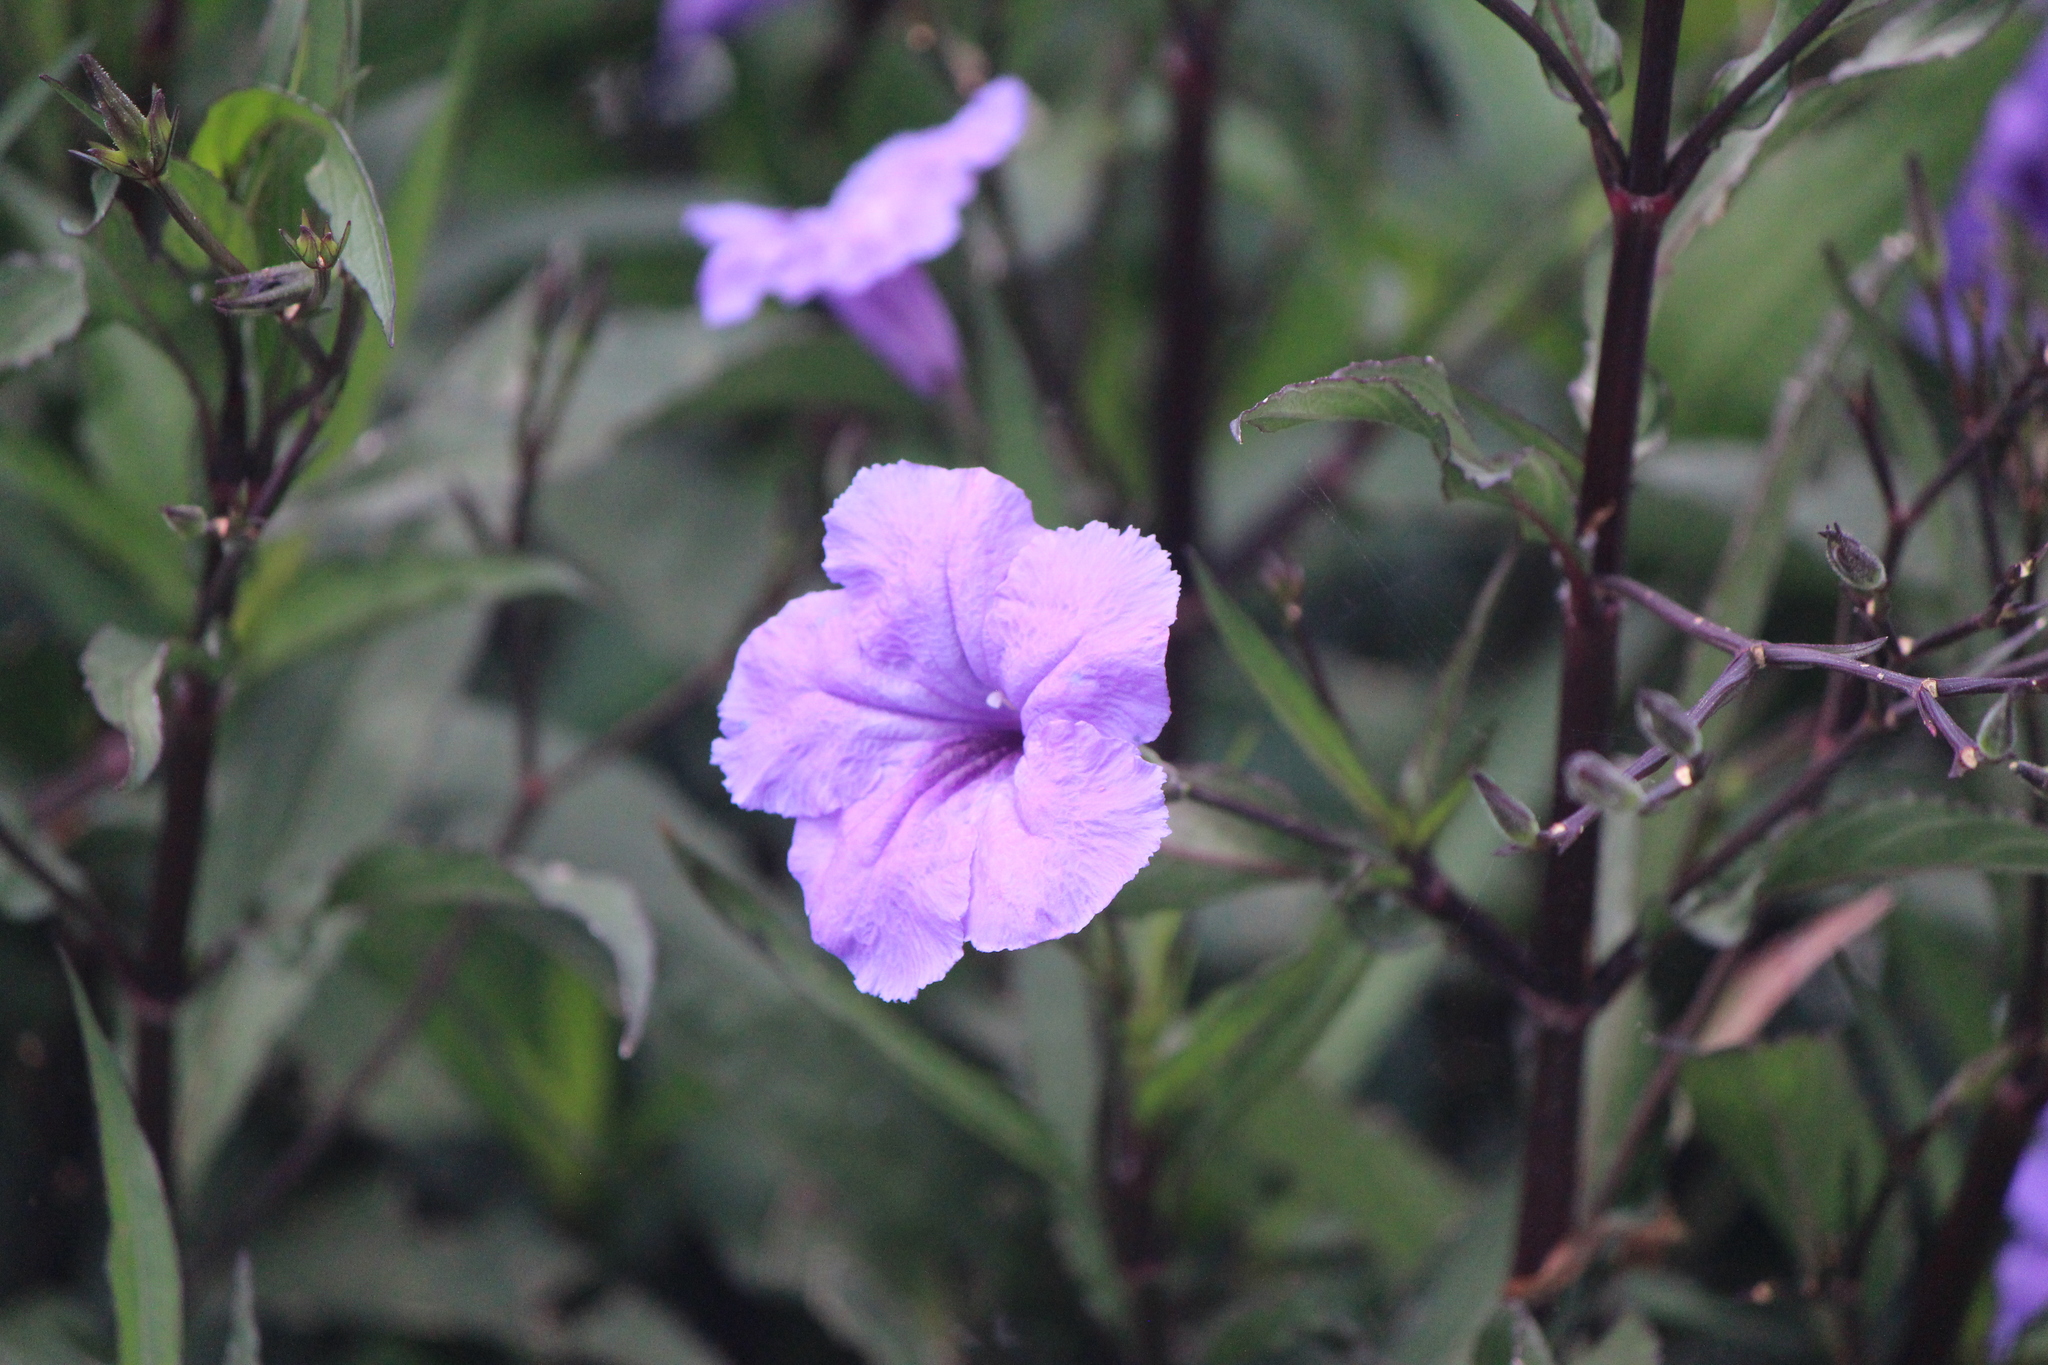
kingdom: Plantae
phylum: Tracheophyta
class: Magnoliopsida
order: Lamiales
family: Acanthaceae
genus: Ruellia
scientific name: Ruellia simplex
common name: Softseed wild petunia
